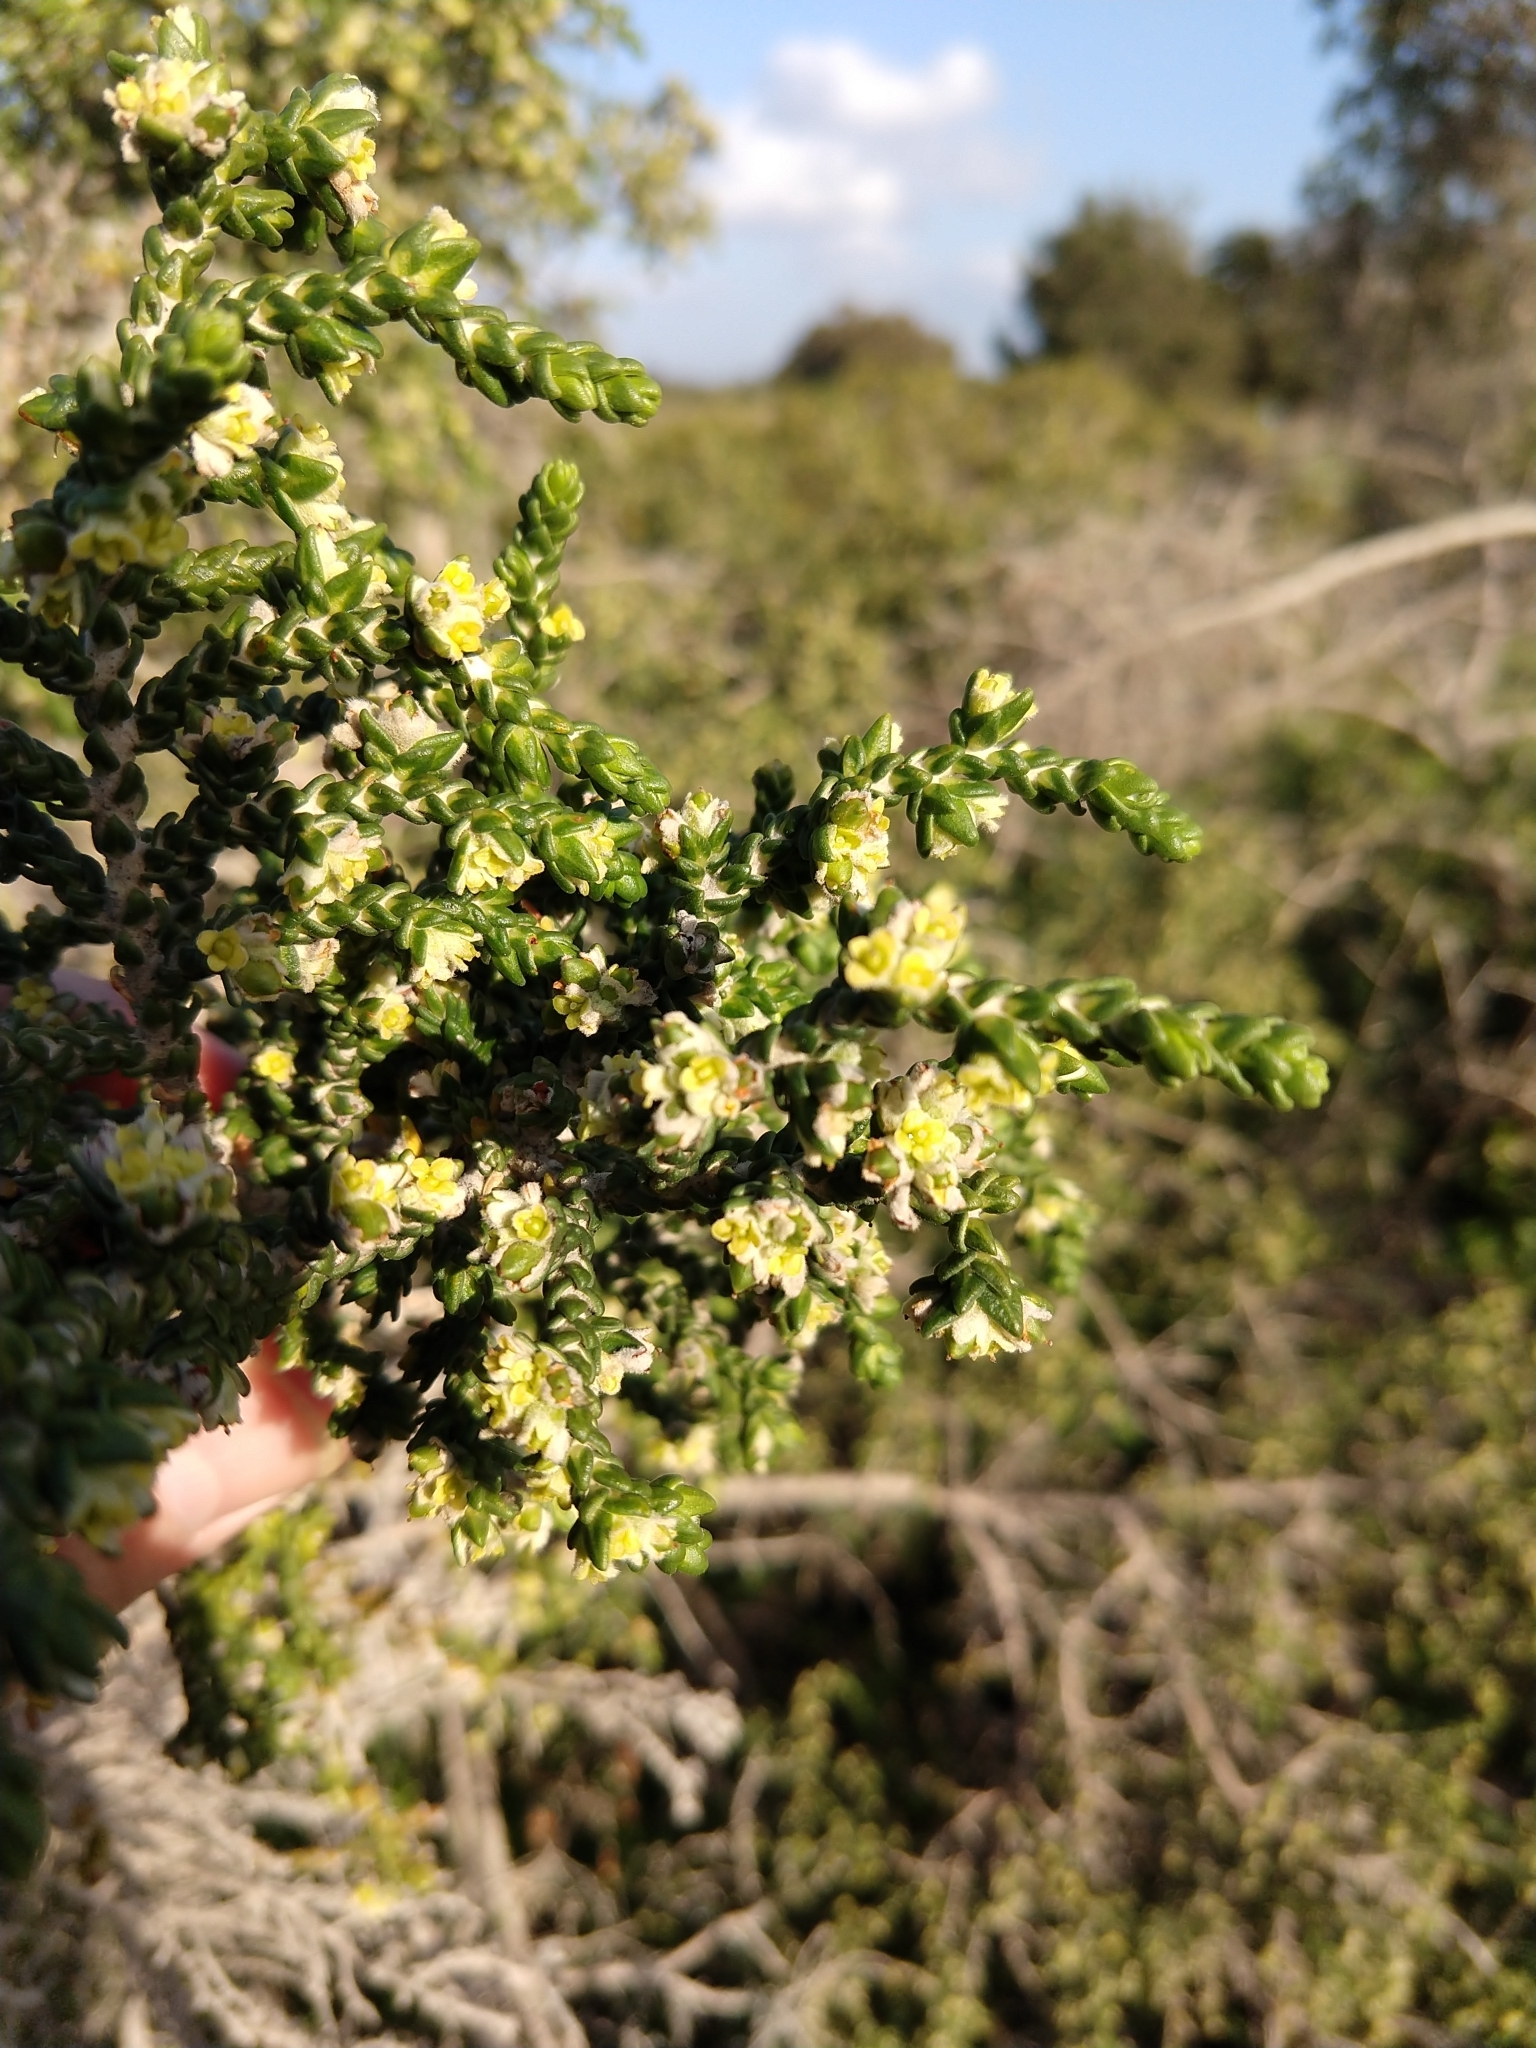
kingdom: Plantae
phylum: Tracheophyta
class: Magnoliopsida
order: Malvales
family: Thymelaeaceae
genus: Thymelaea
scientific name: Thymelaea hirsuta
